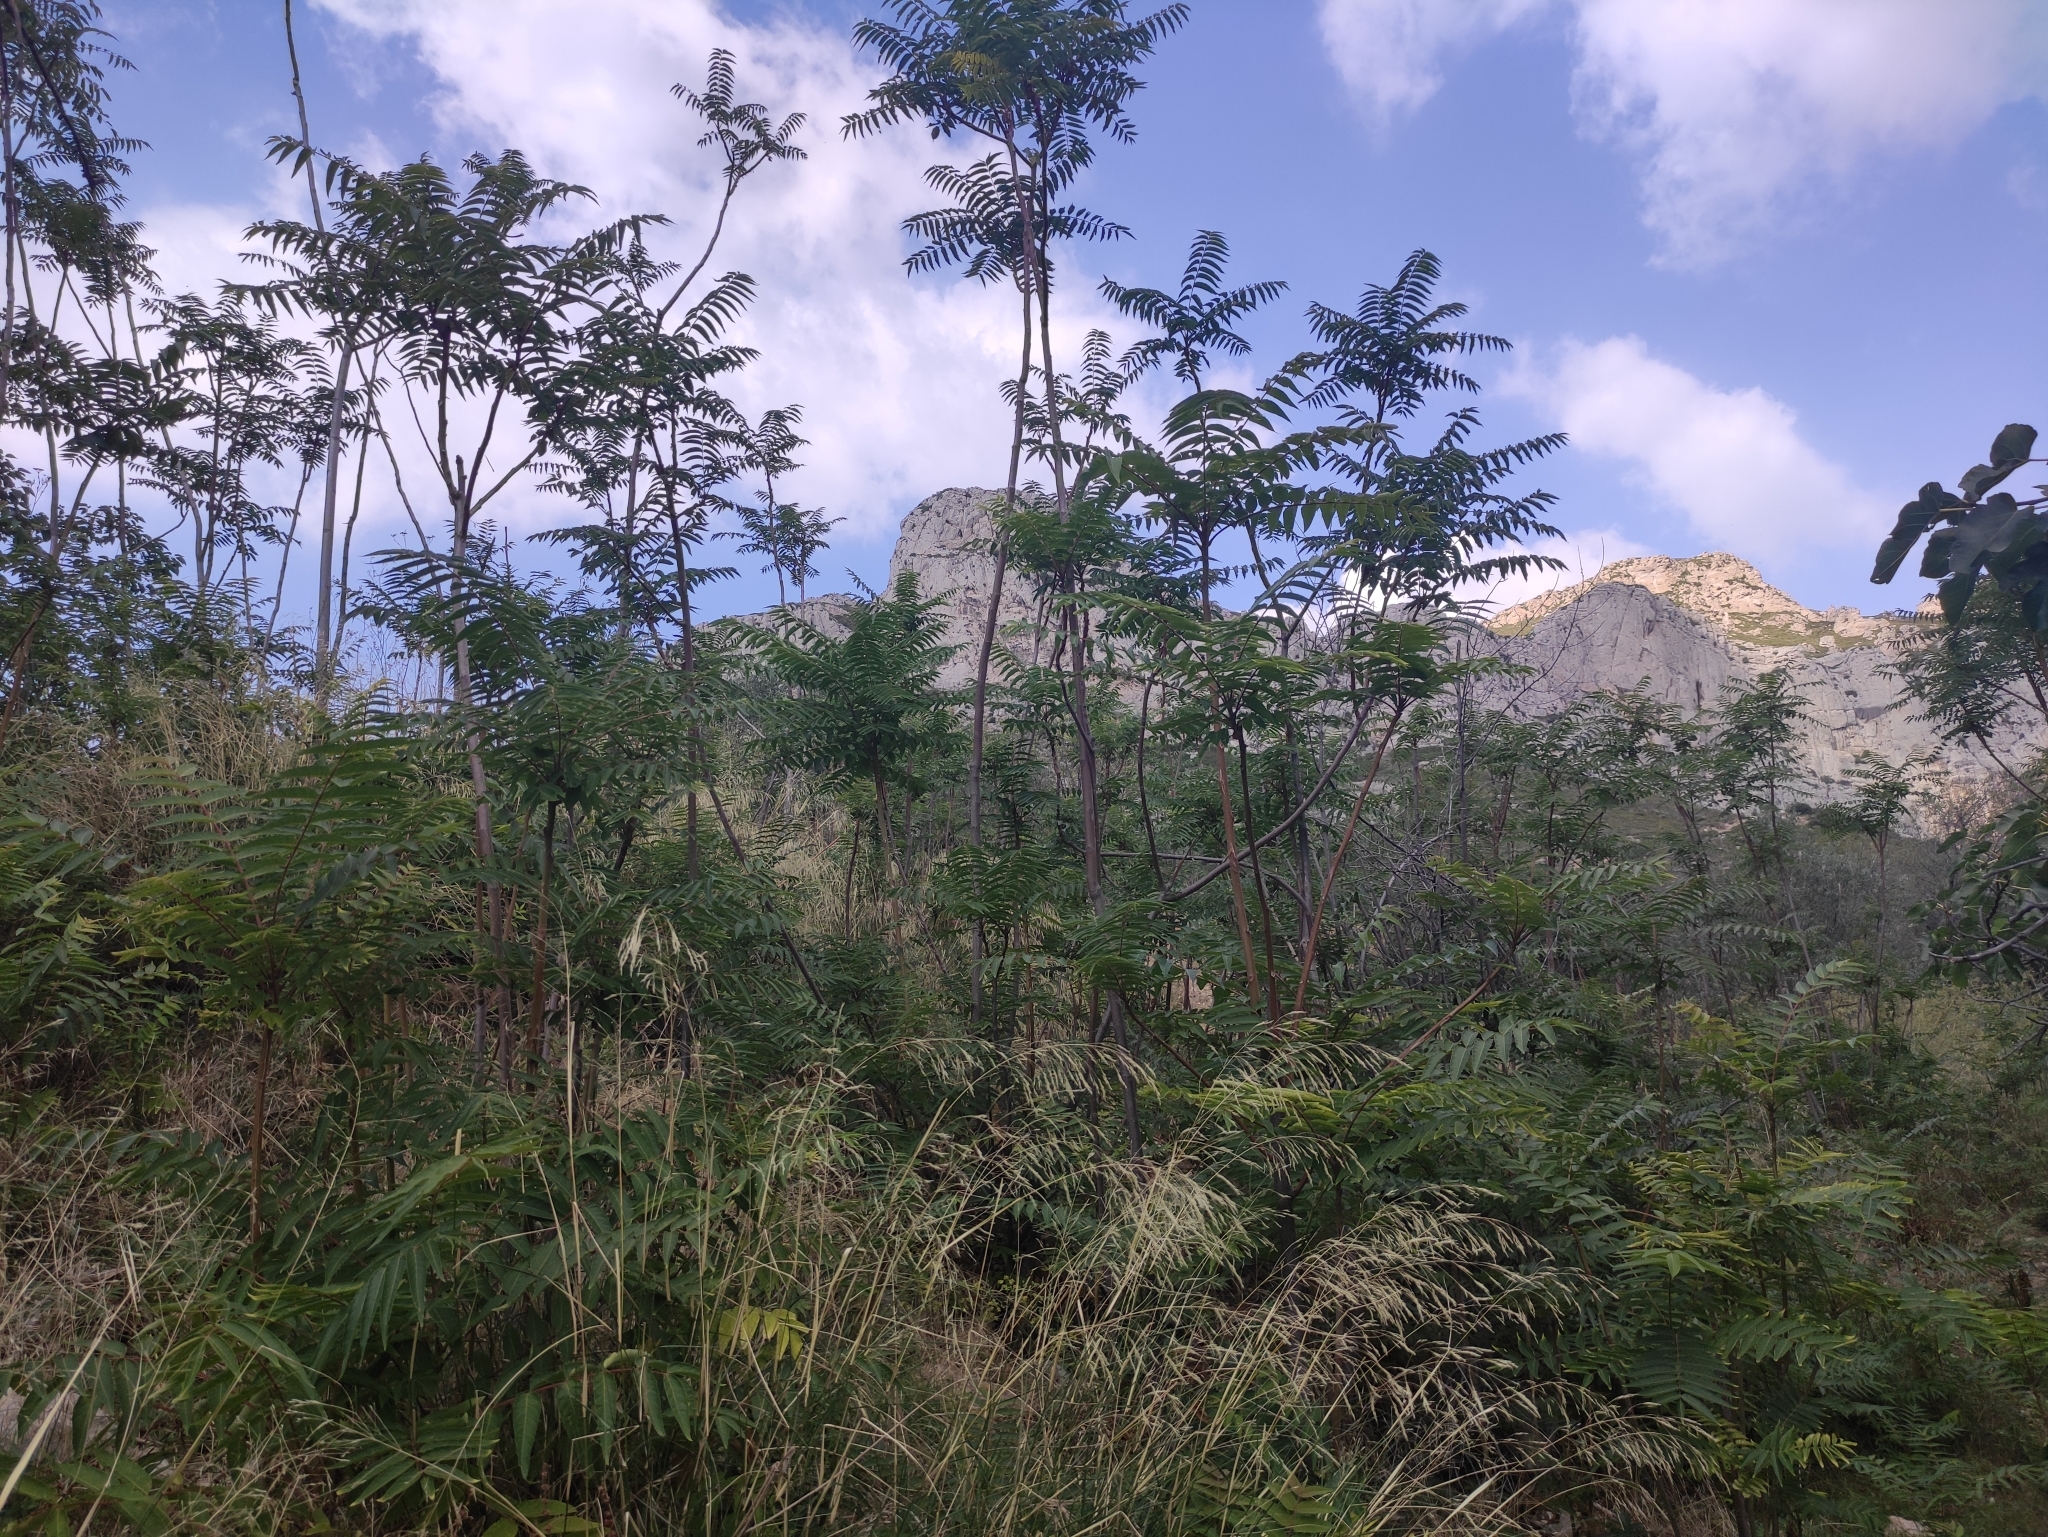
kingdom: Plantae
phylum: Tracheophyta
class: Magnoliopsida
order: Sapindales
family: Simaroubaceae
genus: Ailanthus
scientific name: Ailanthus altissima
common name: Tree-of-heaven
